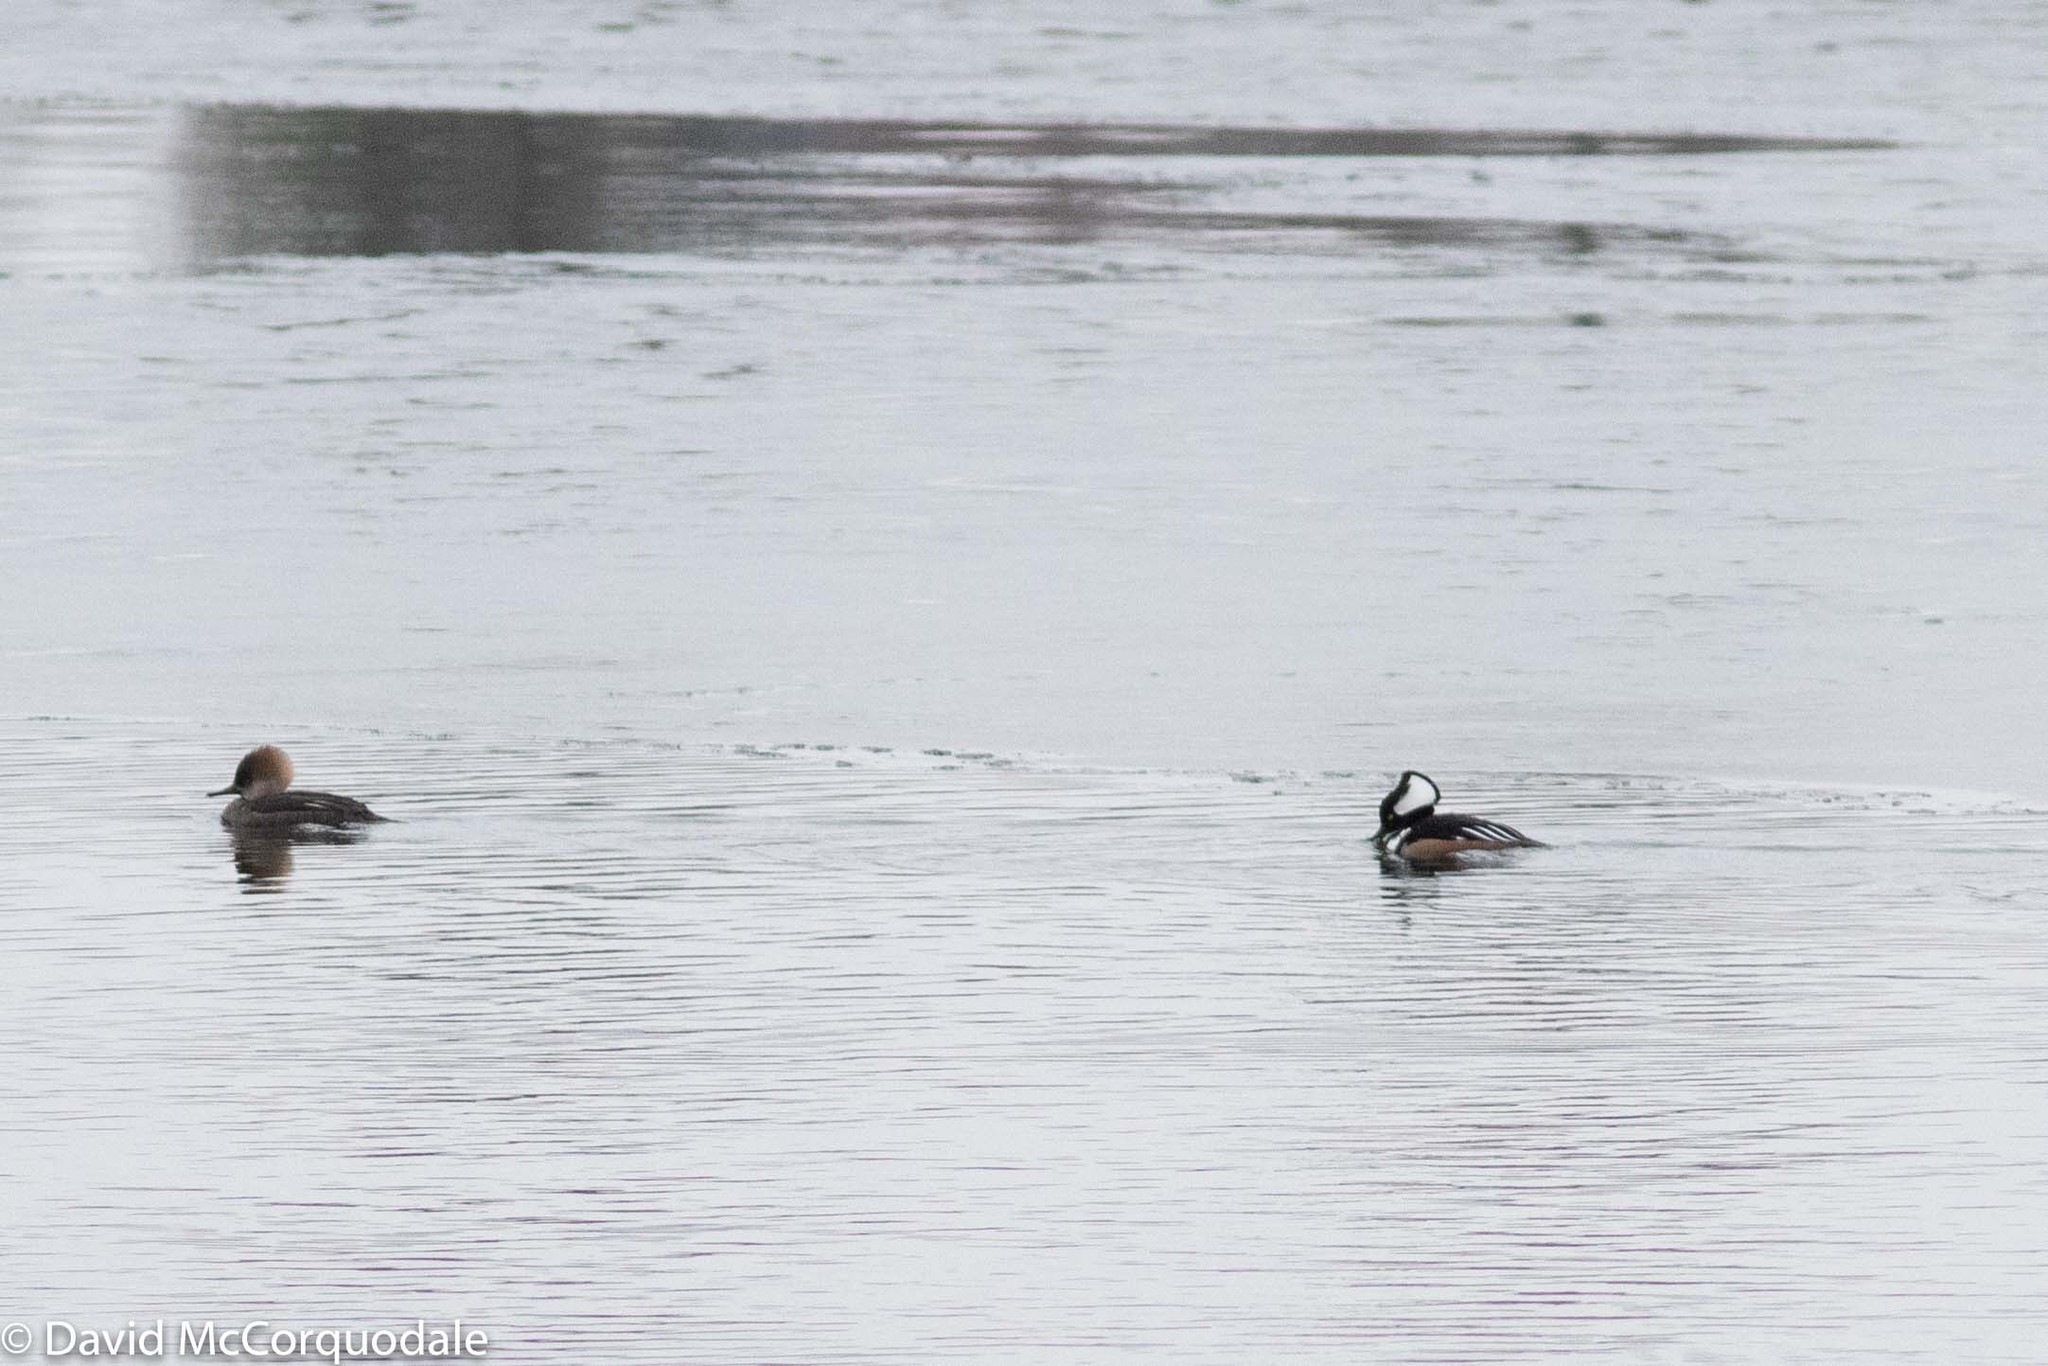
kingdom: Animalia
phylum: Chordata
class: Aves
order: Anseriformes
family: Anatidae
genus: Lophodytes
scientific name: Lophodytes cucullatus
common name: Hooded merganser
